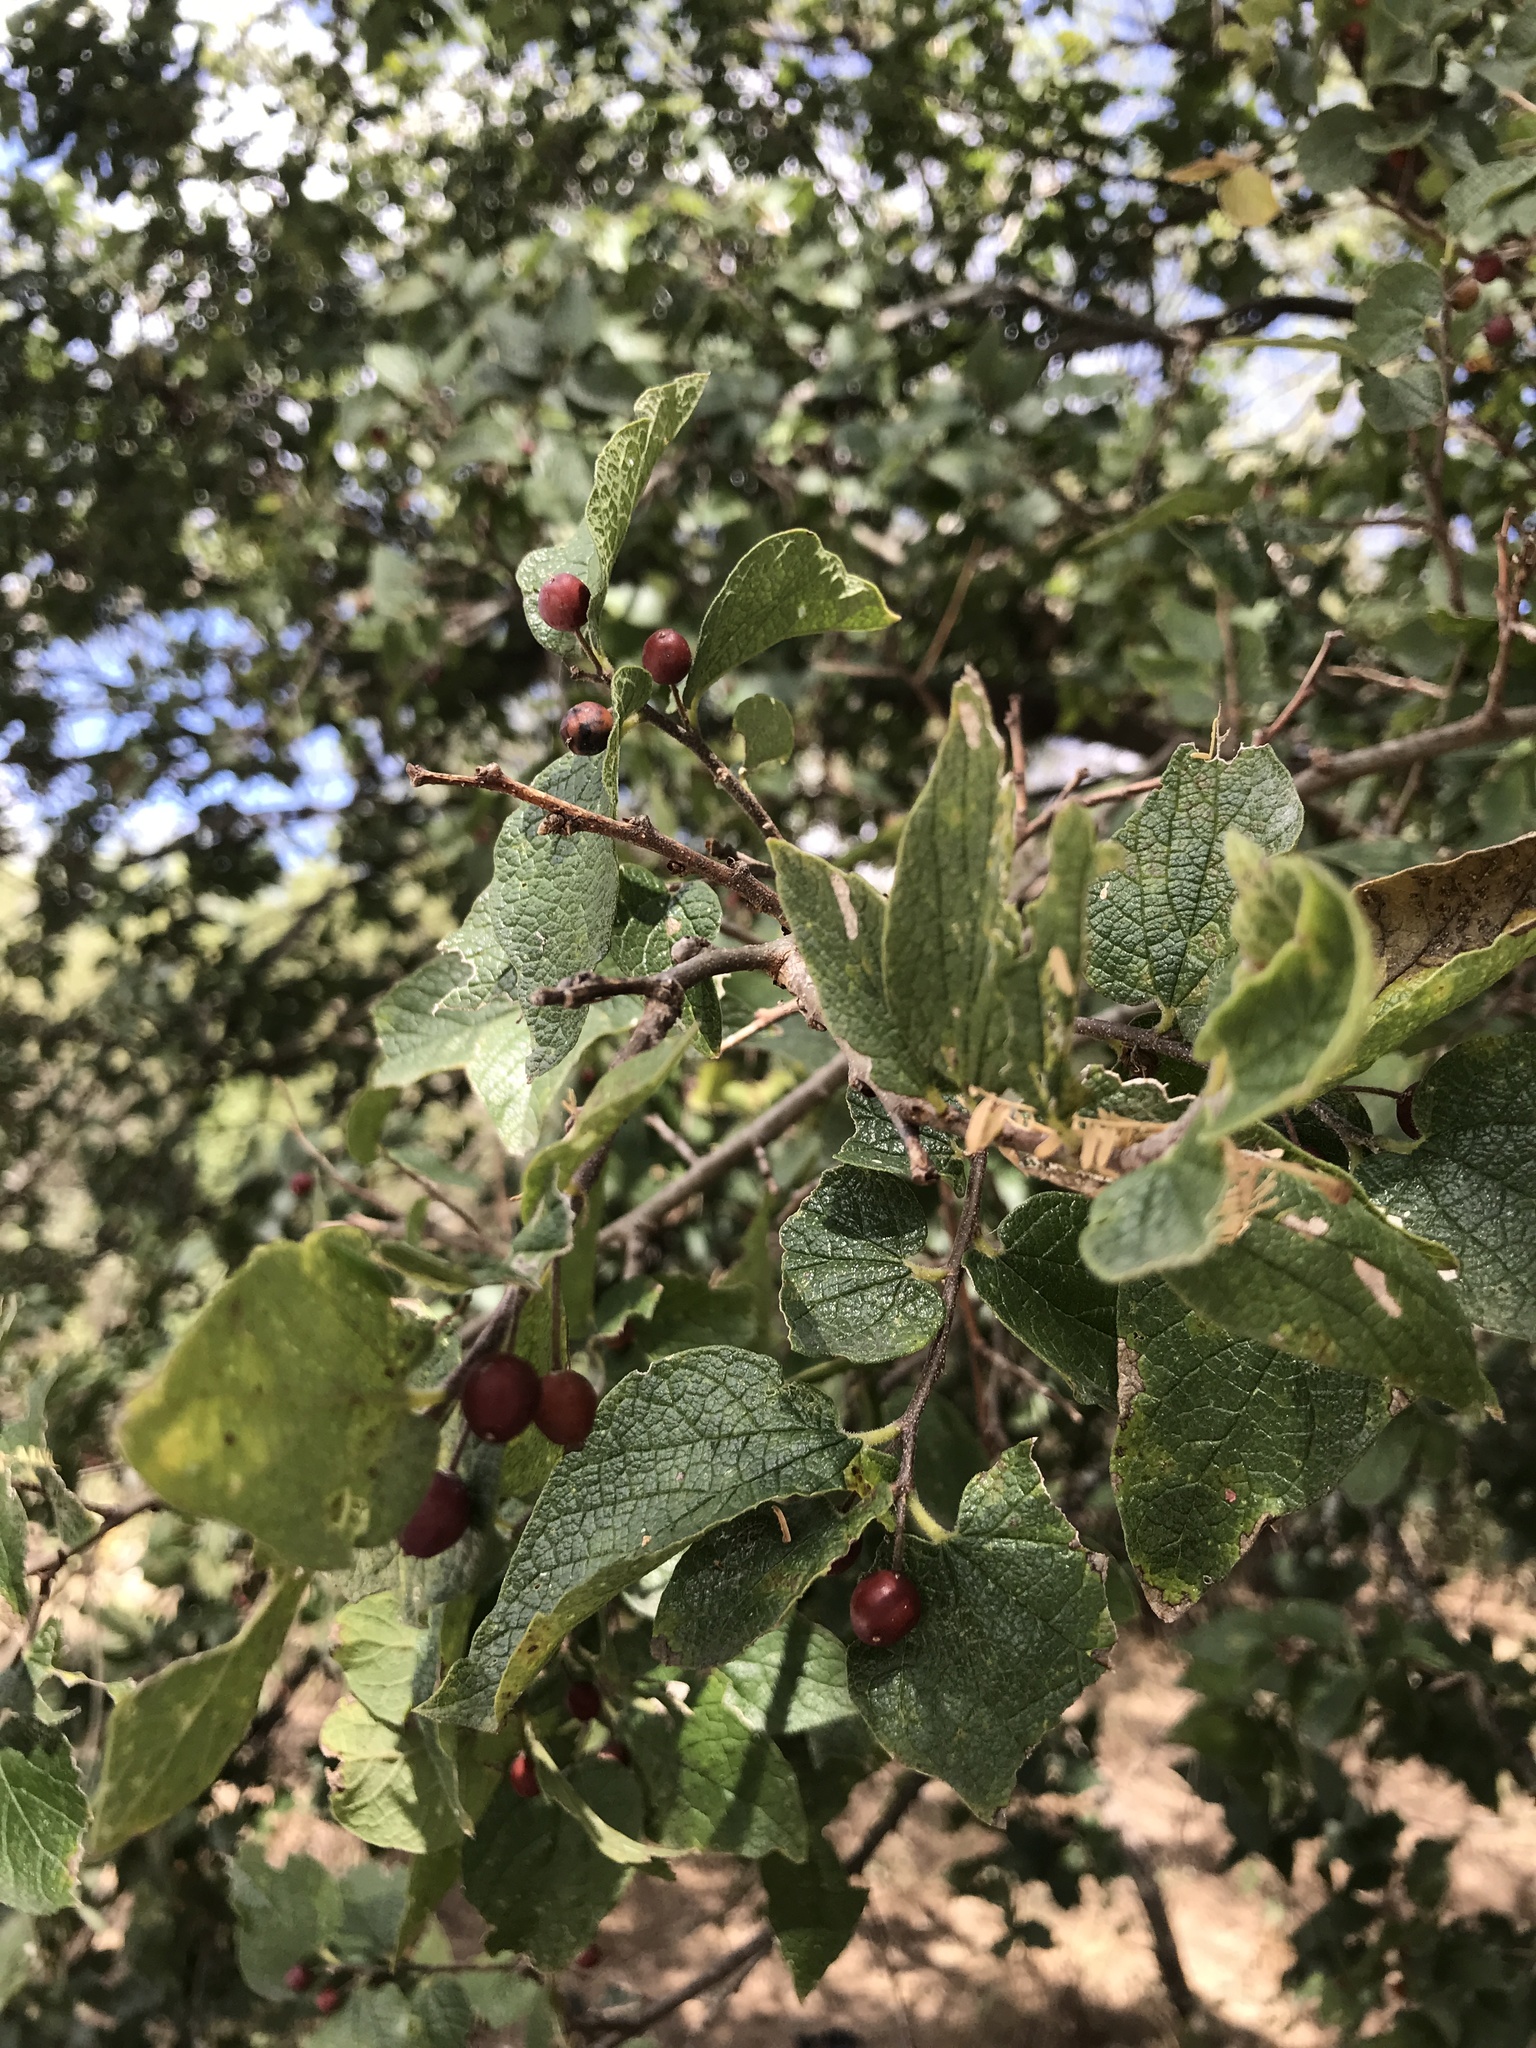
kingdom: Plantae
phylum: Tracheophyta
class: Magnoliopsida
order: Rosales
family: Cannabaceae
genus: Celtis
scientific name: Celtis reticulata
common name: Netleaf hackberry
